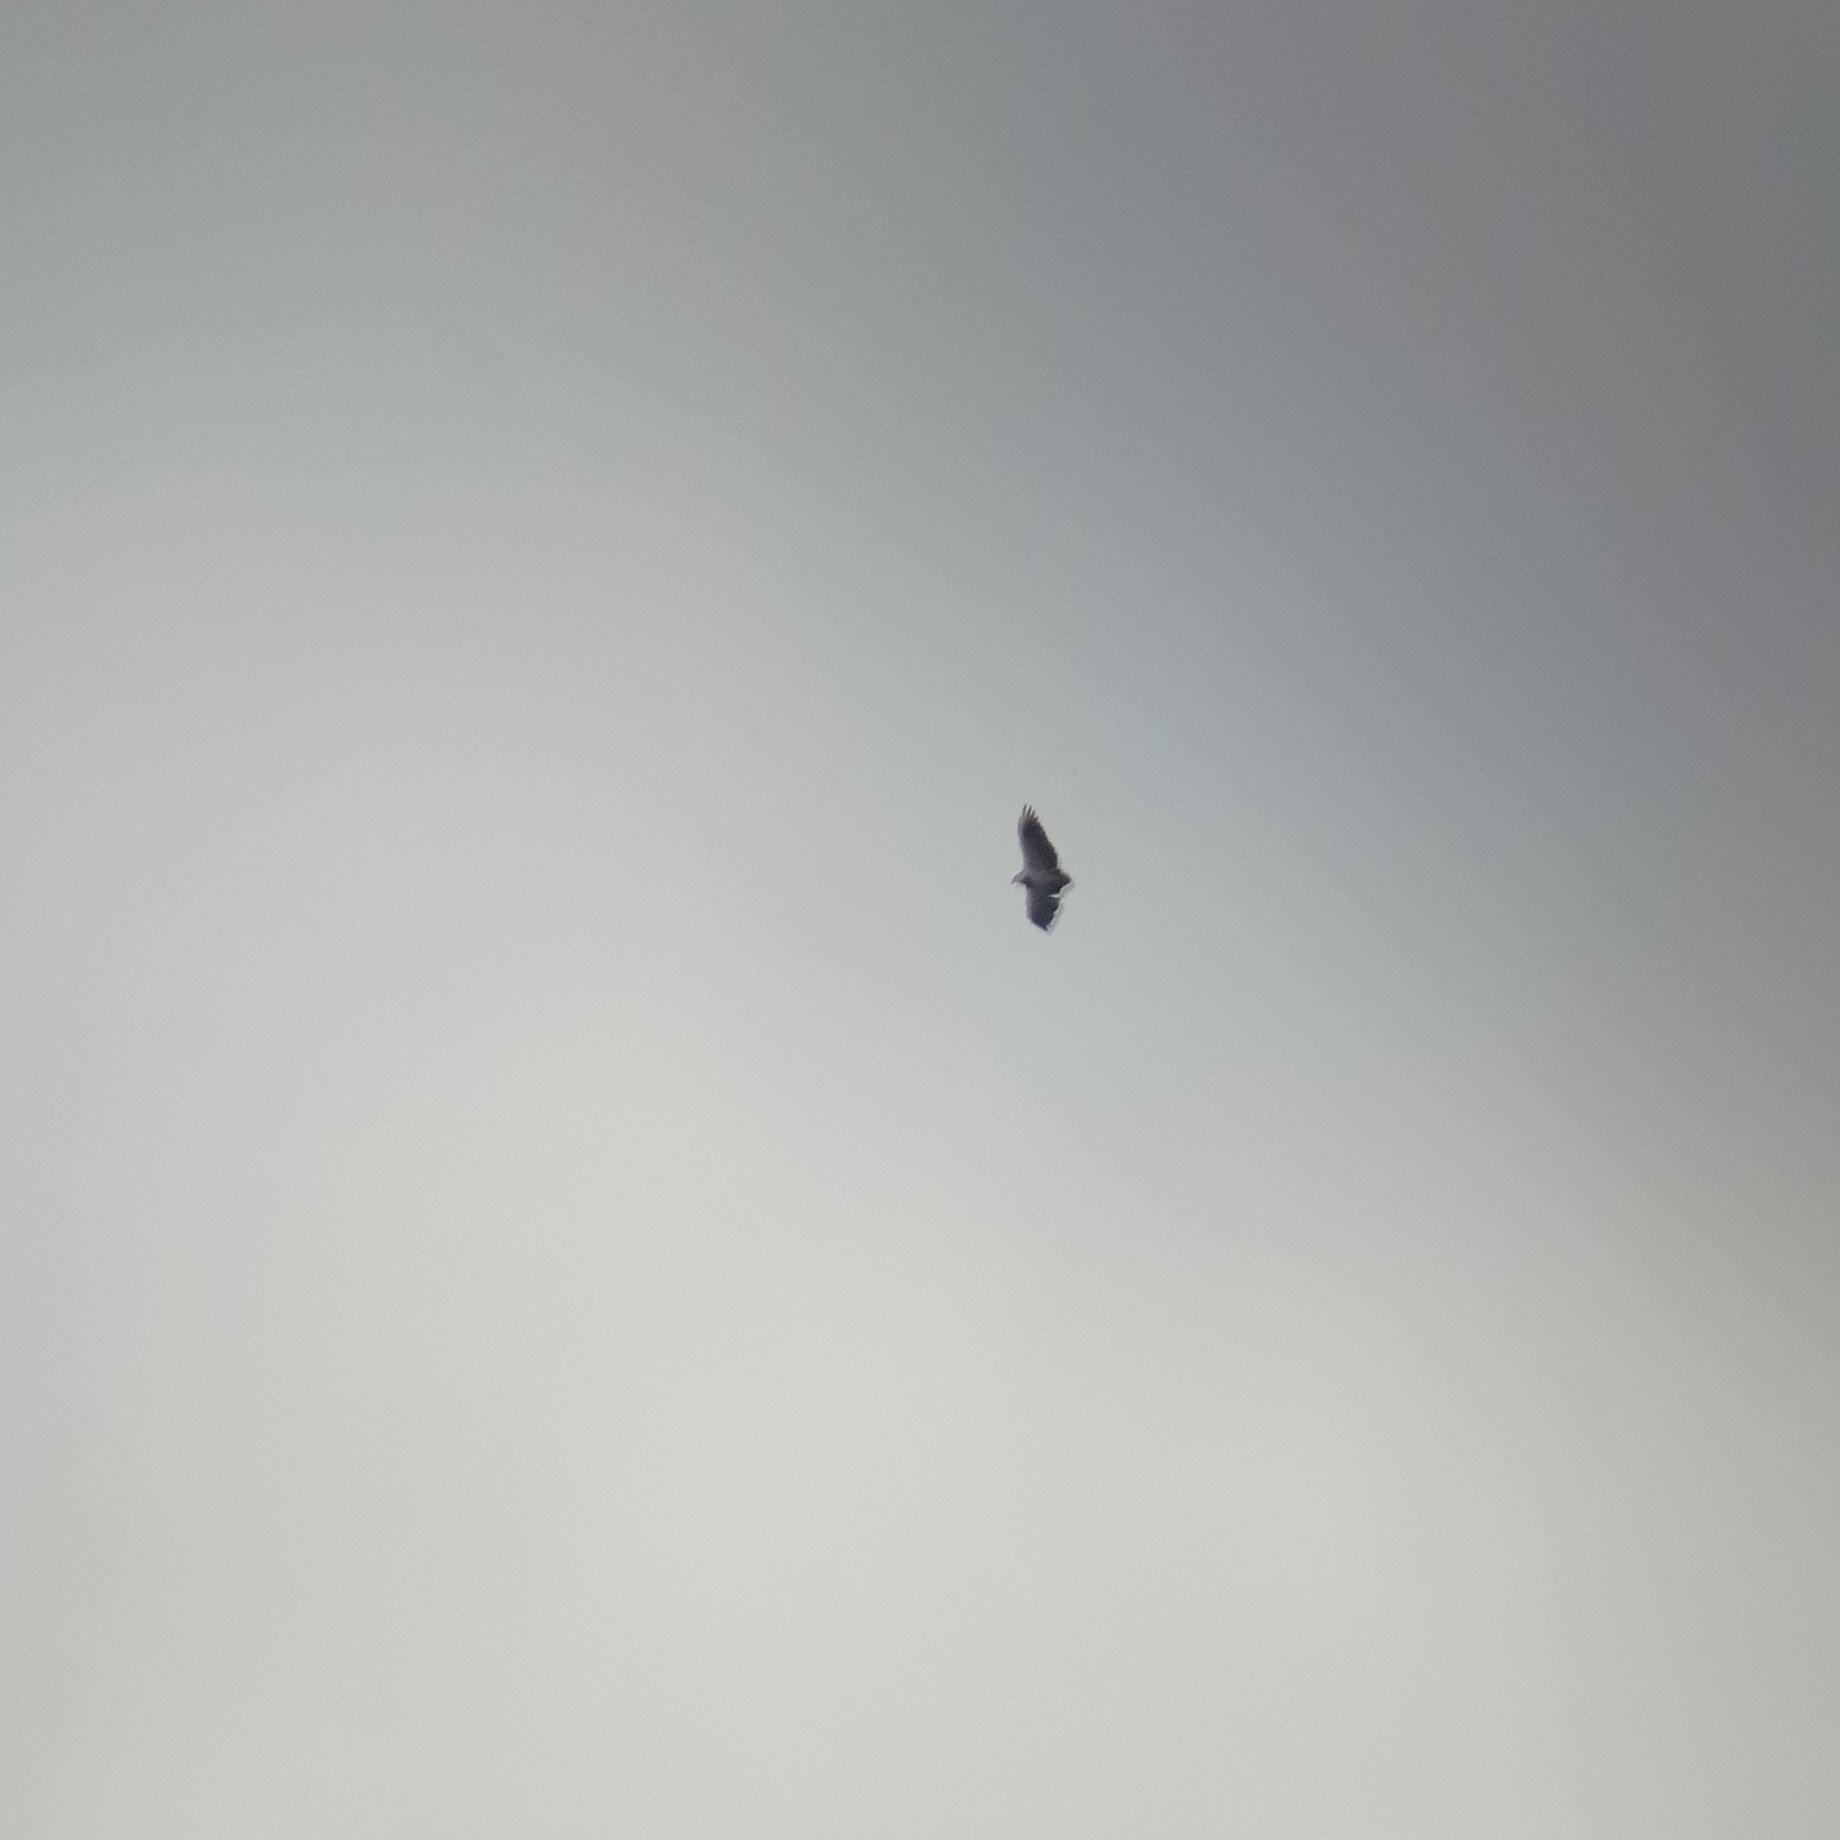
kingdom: Animalia
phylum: Chordata
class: Aves
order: Accipitriformes
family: Accipitridae
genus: Geranoaetus
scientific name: Geranoaetus melanoleucus
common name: Black-chested buzzard-eagle
